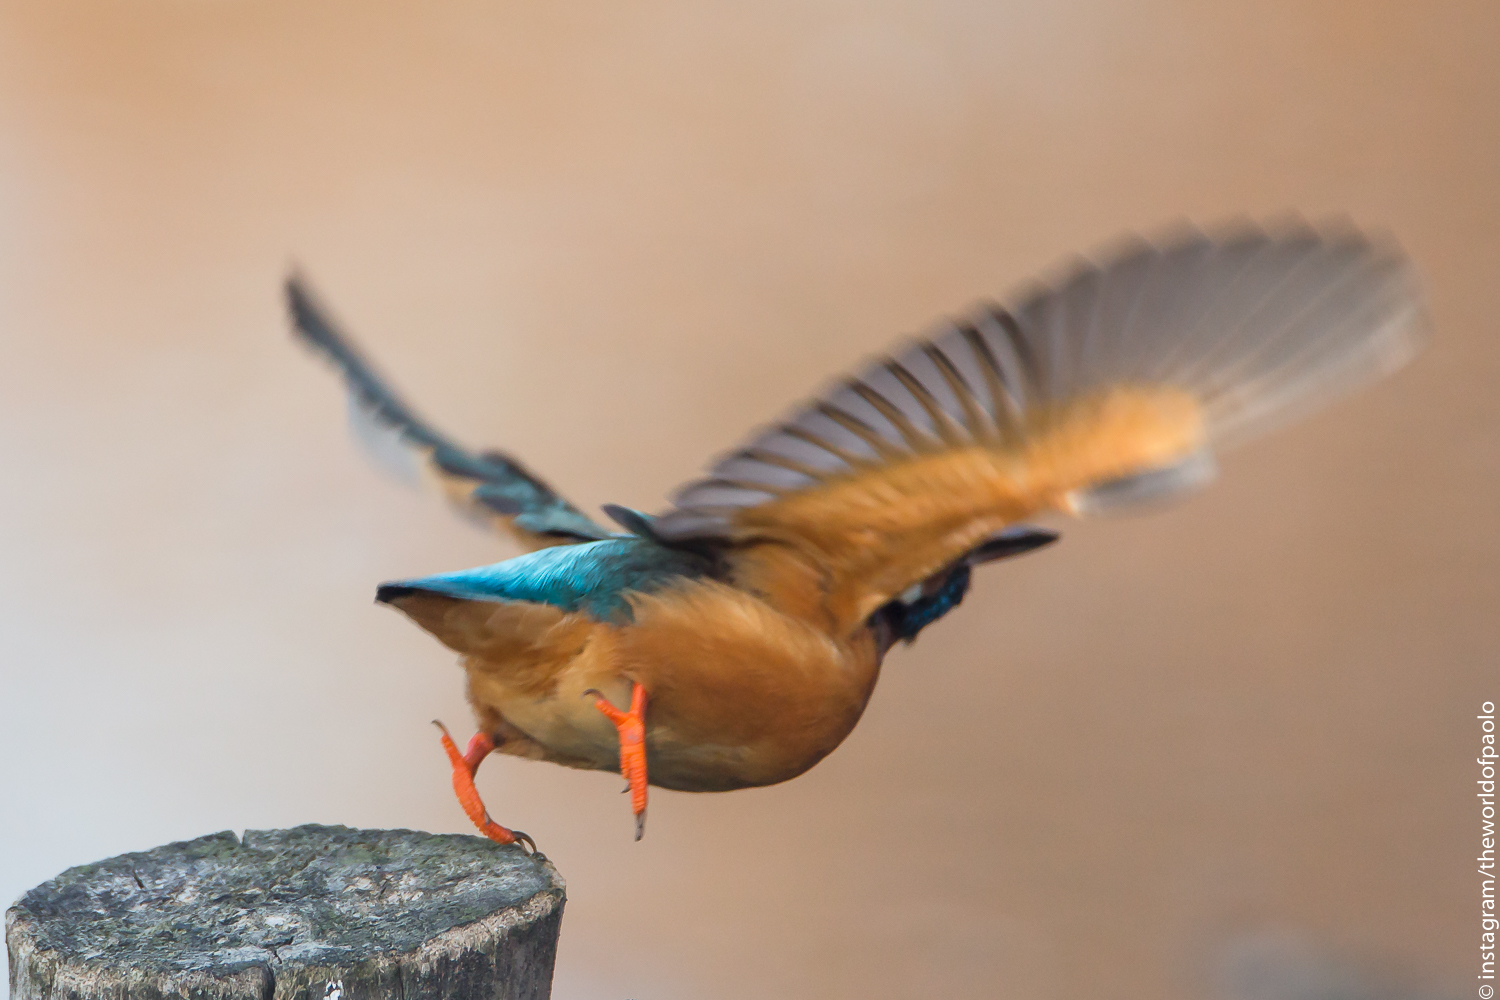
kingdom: Animalia
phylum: Chordata
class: Aves
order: Coraciiformes
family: Alcedinidae
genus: Alcedo
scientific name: Alcedo atthis
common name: Common kingfisher
